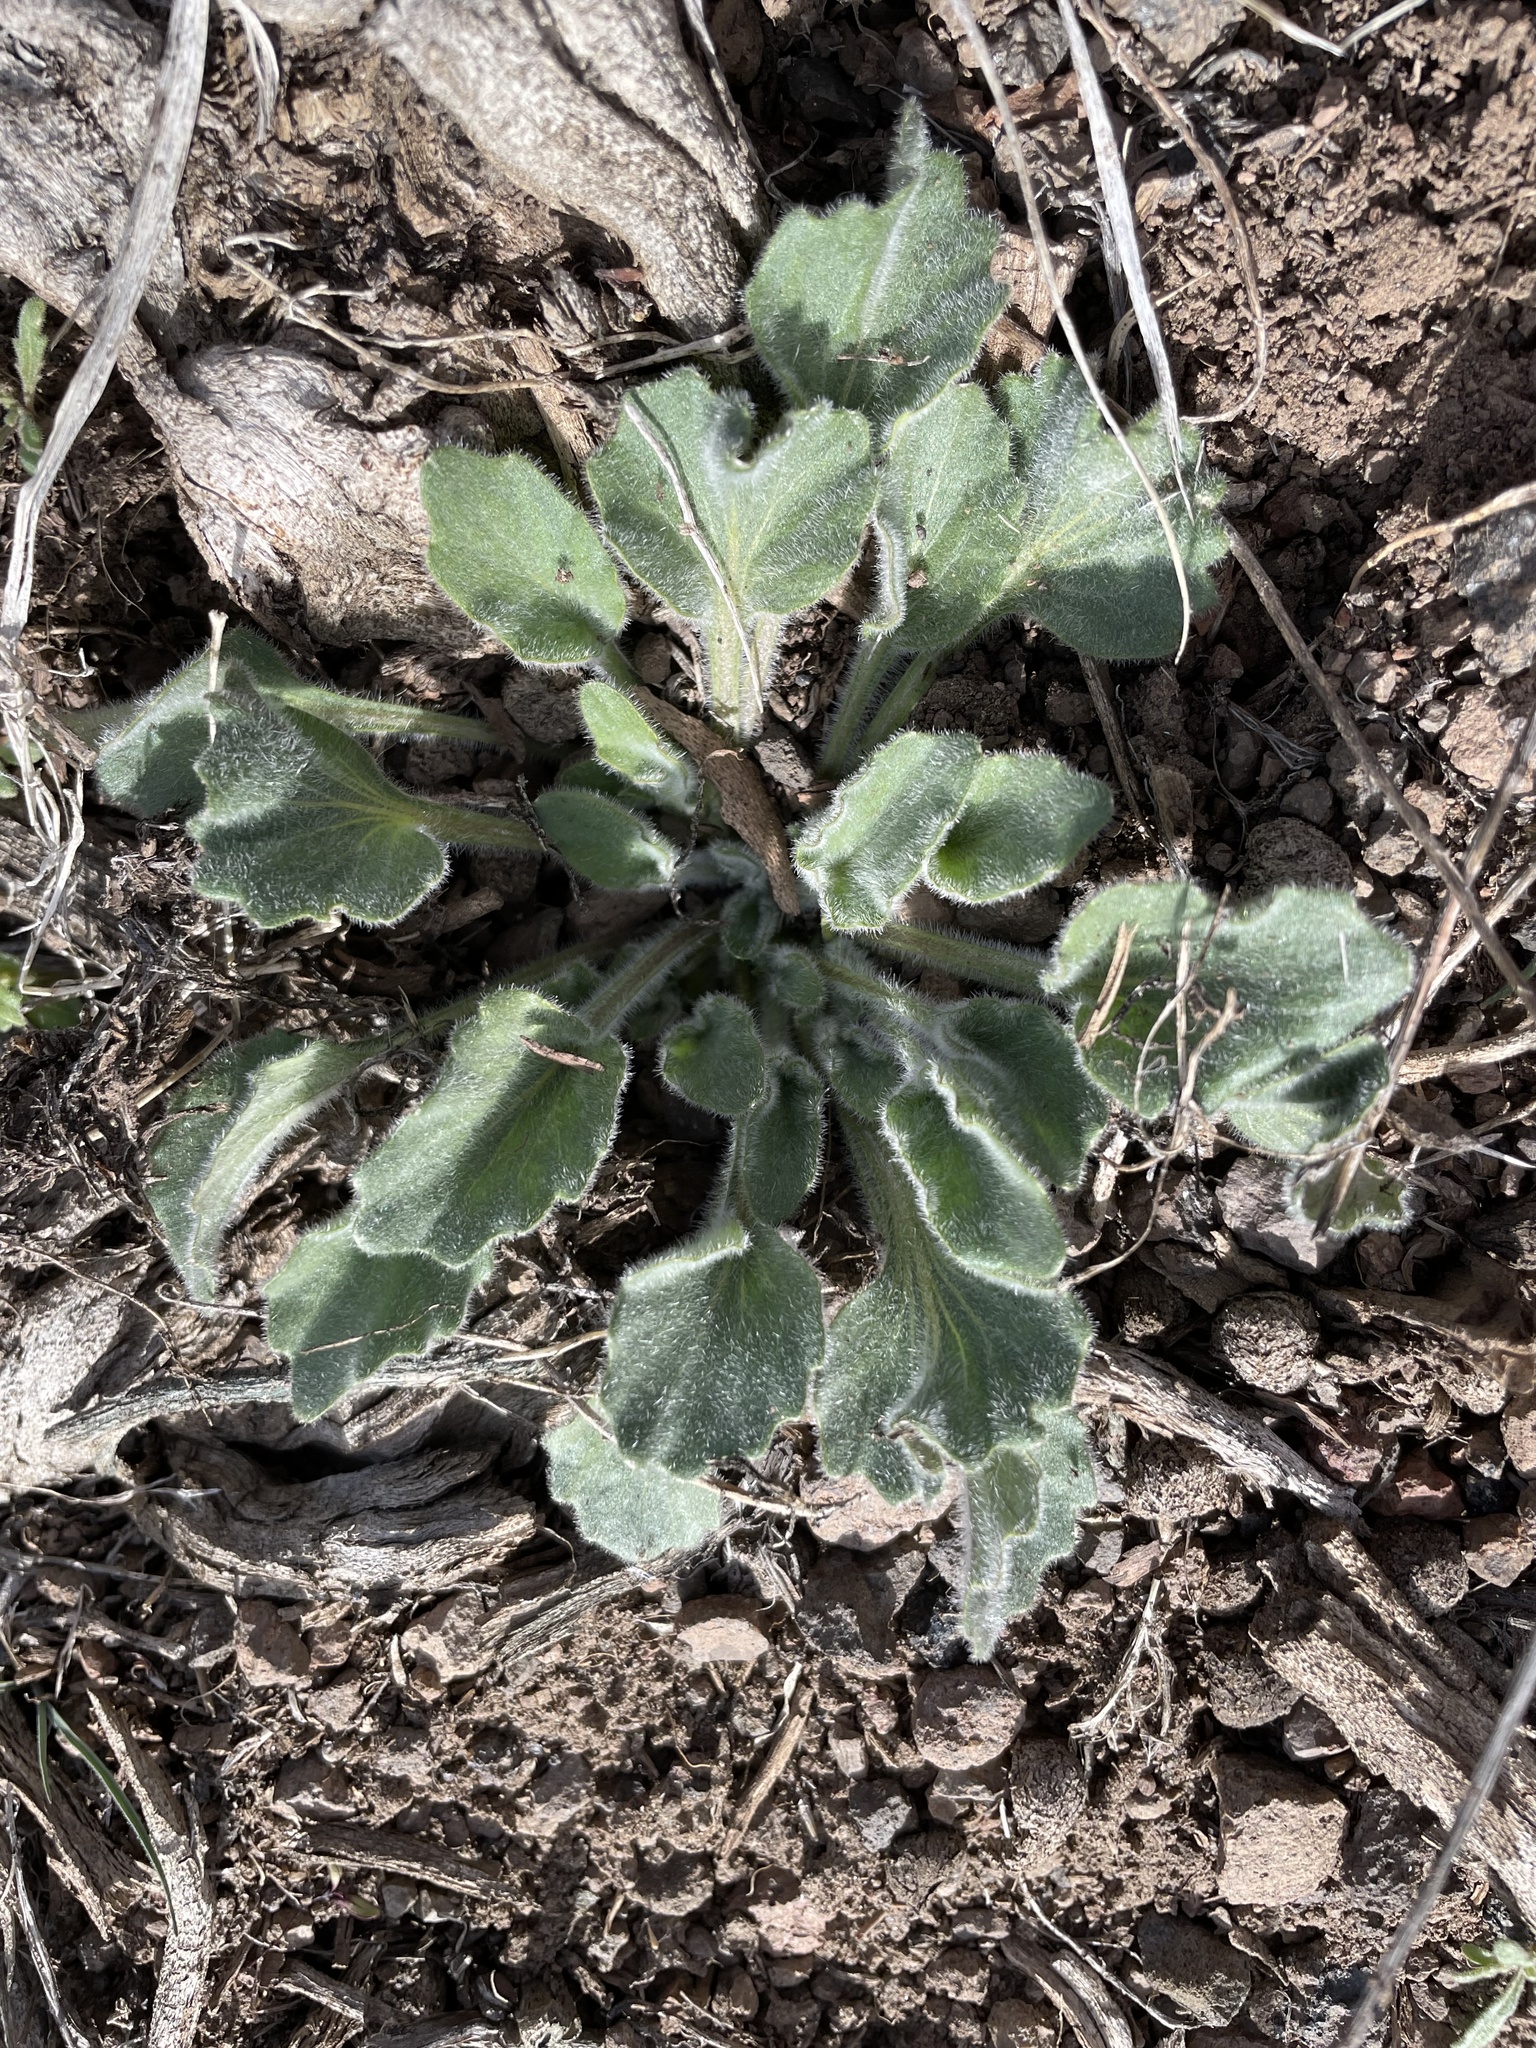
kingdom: Plantae
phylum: Tracheophyta
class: Magnoliopsida
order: Malpighiales
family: Violaceae
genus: Viola
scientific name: Viola aurea
